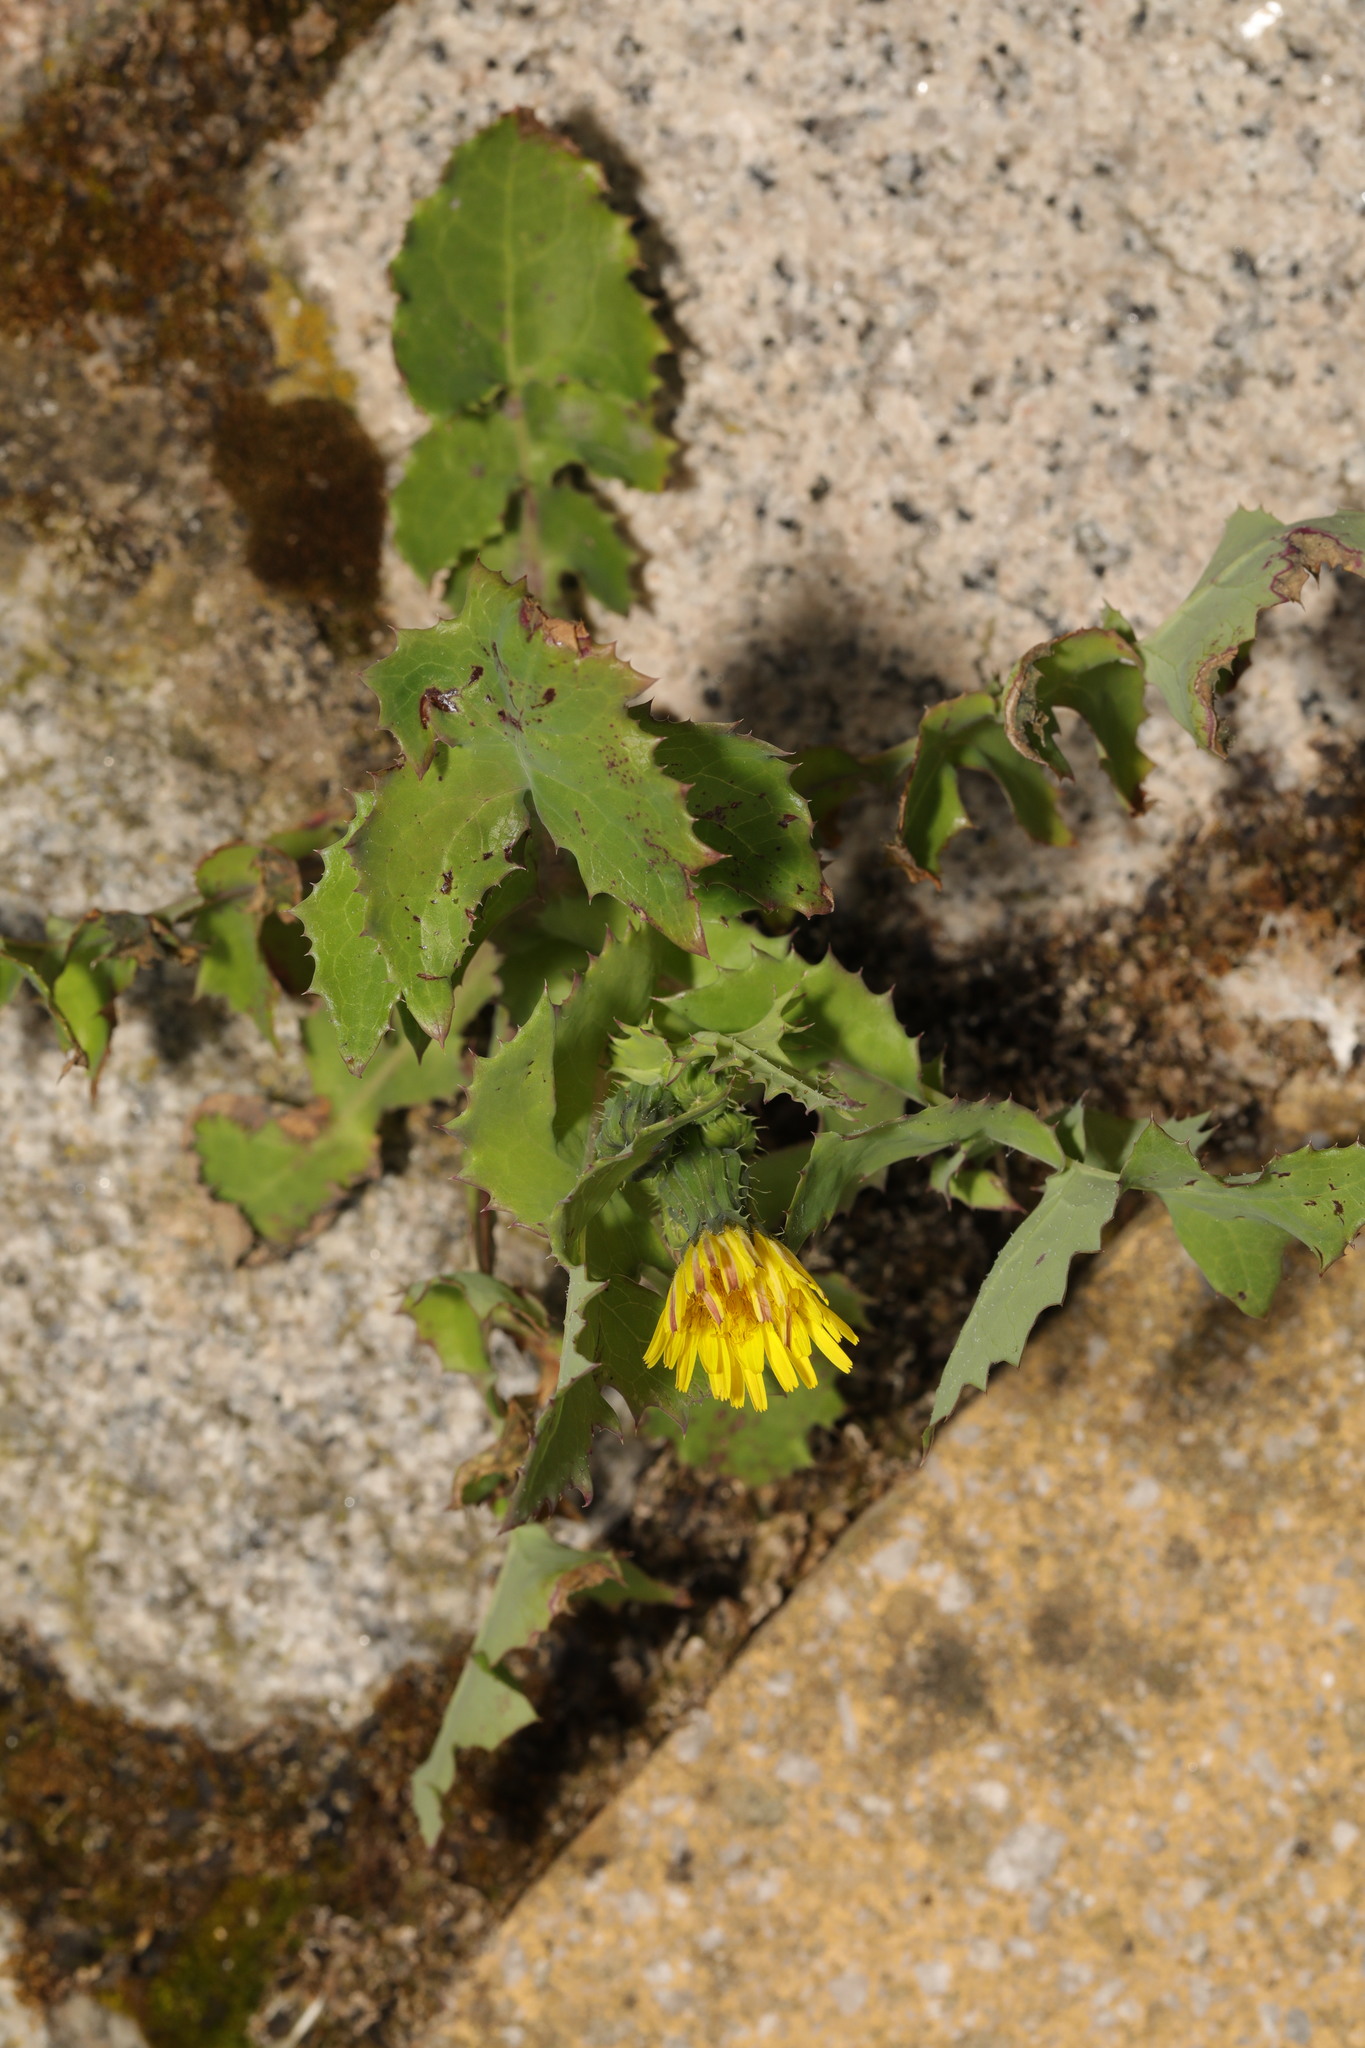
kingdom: Plantae
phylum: Tracheophyta
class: Magnoliopsida
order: Asterales
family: Asteraceae
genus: Sonchus
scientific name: Sonchus oleraceus
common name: Common sowthistle
